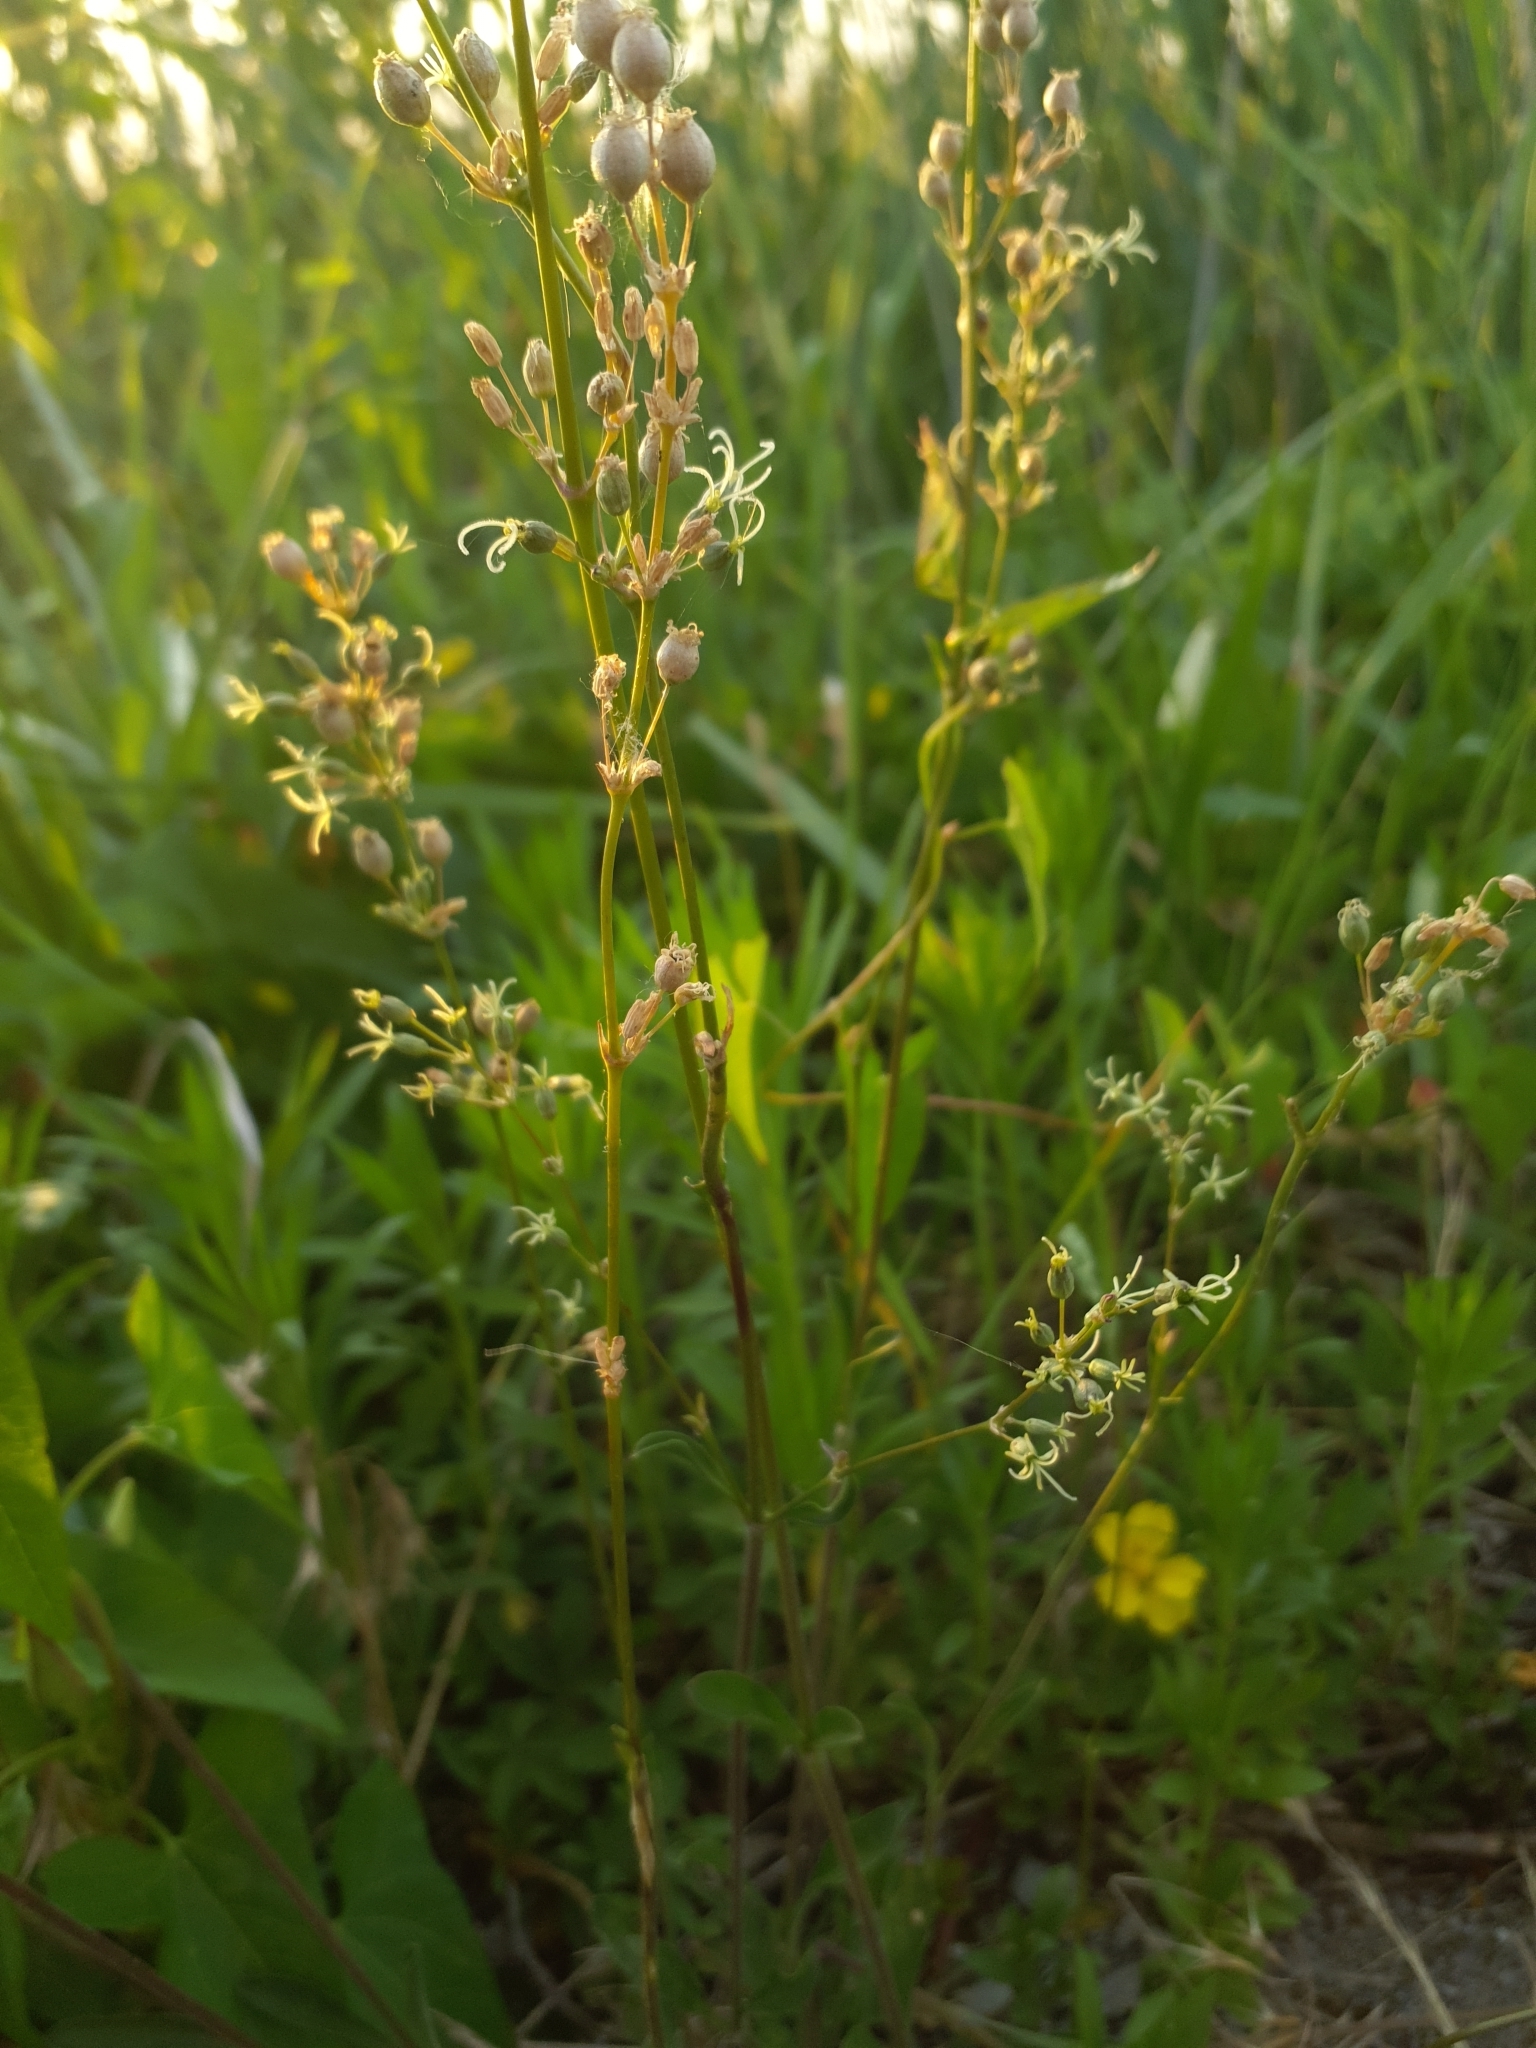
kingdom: Plantae
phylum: Tracheophyta
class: Magnoliopsida
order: Caryophyllales
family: Caryophyllaceae
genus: Silene
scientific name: Silene otites
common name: Spanish catchfly
